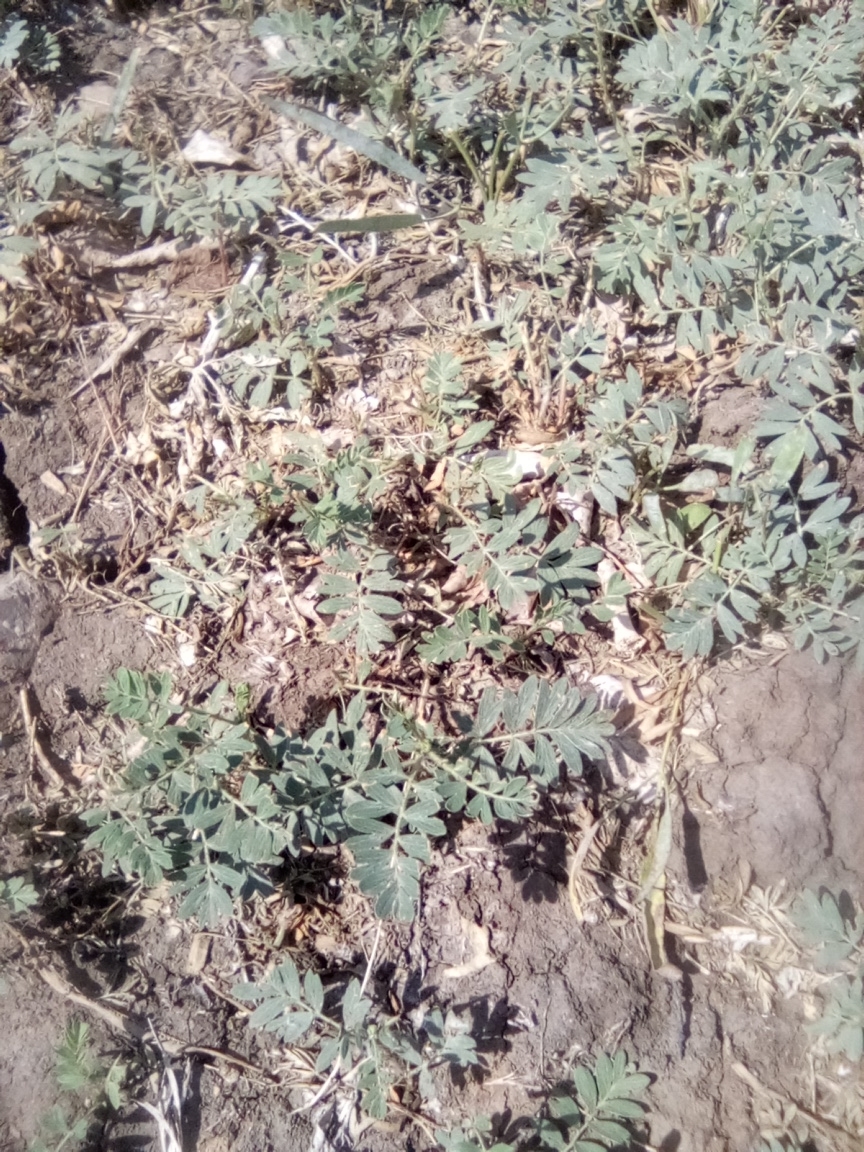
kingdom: Plantae
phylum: Tracheophyta
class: Magnoliopsida
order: Rosales
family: Rosaceae
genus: Sibbaldianthe
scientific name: Sibbaldianthe bifurca
